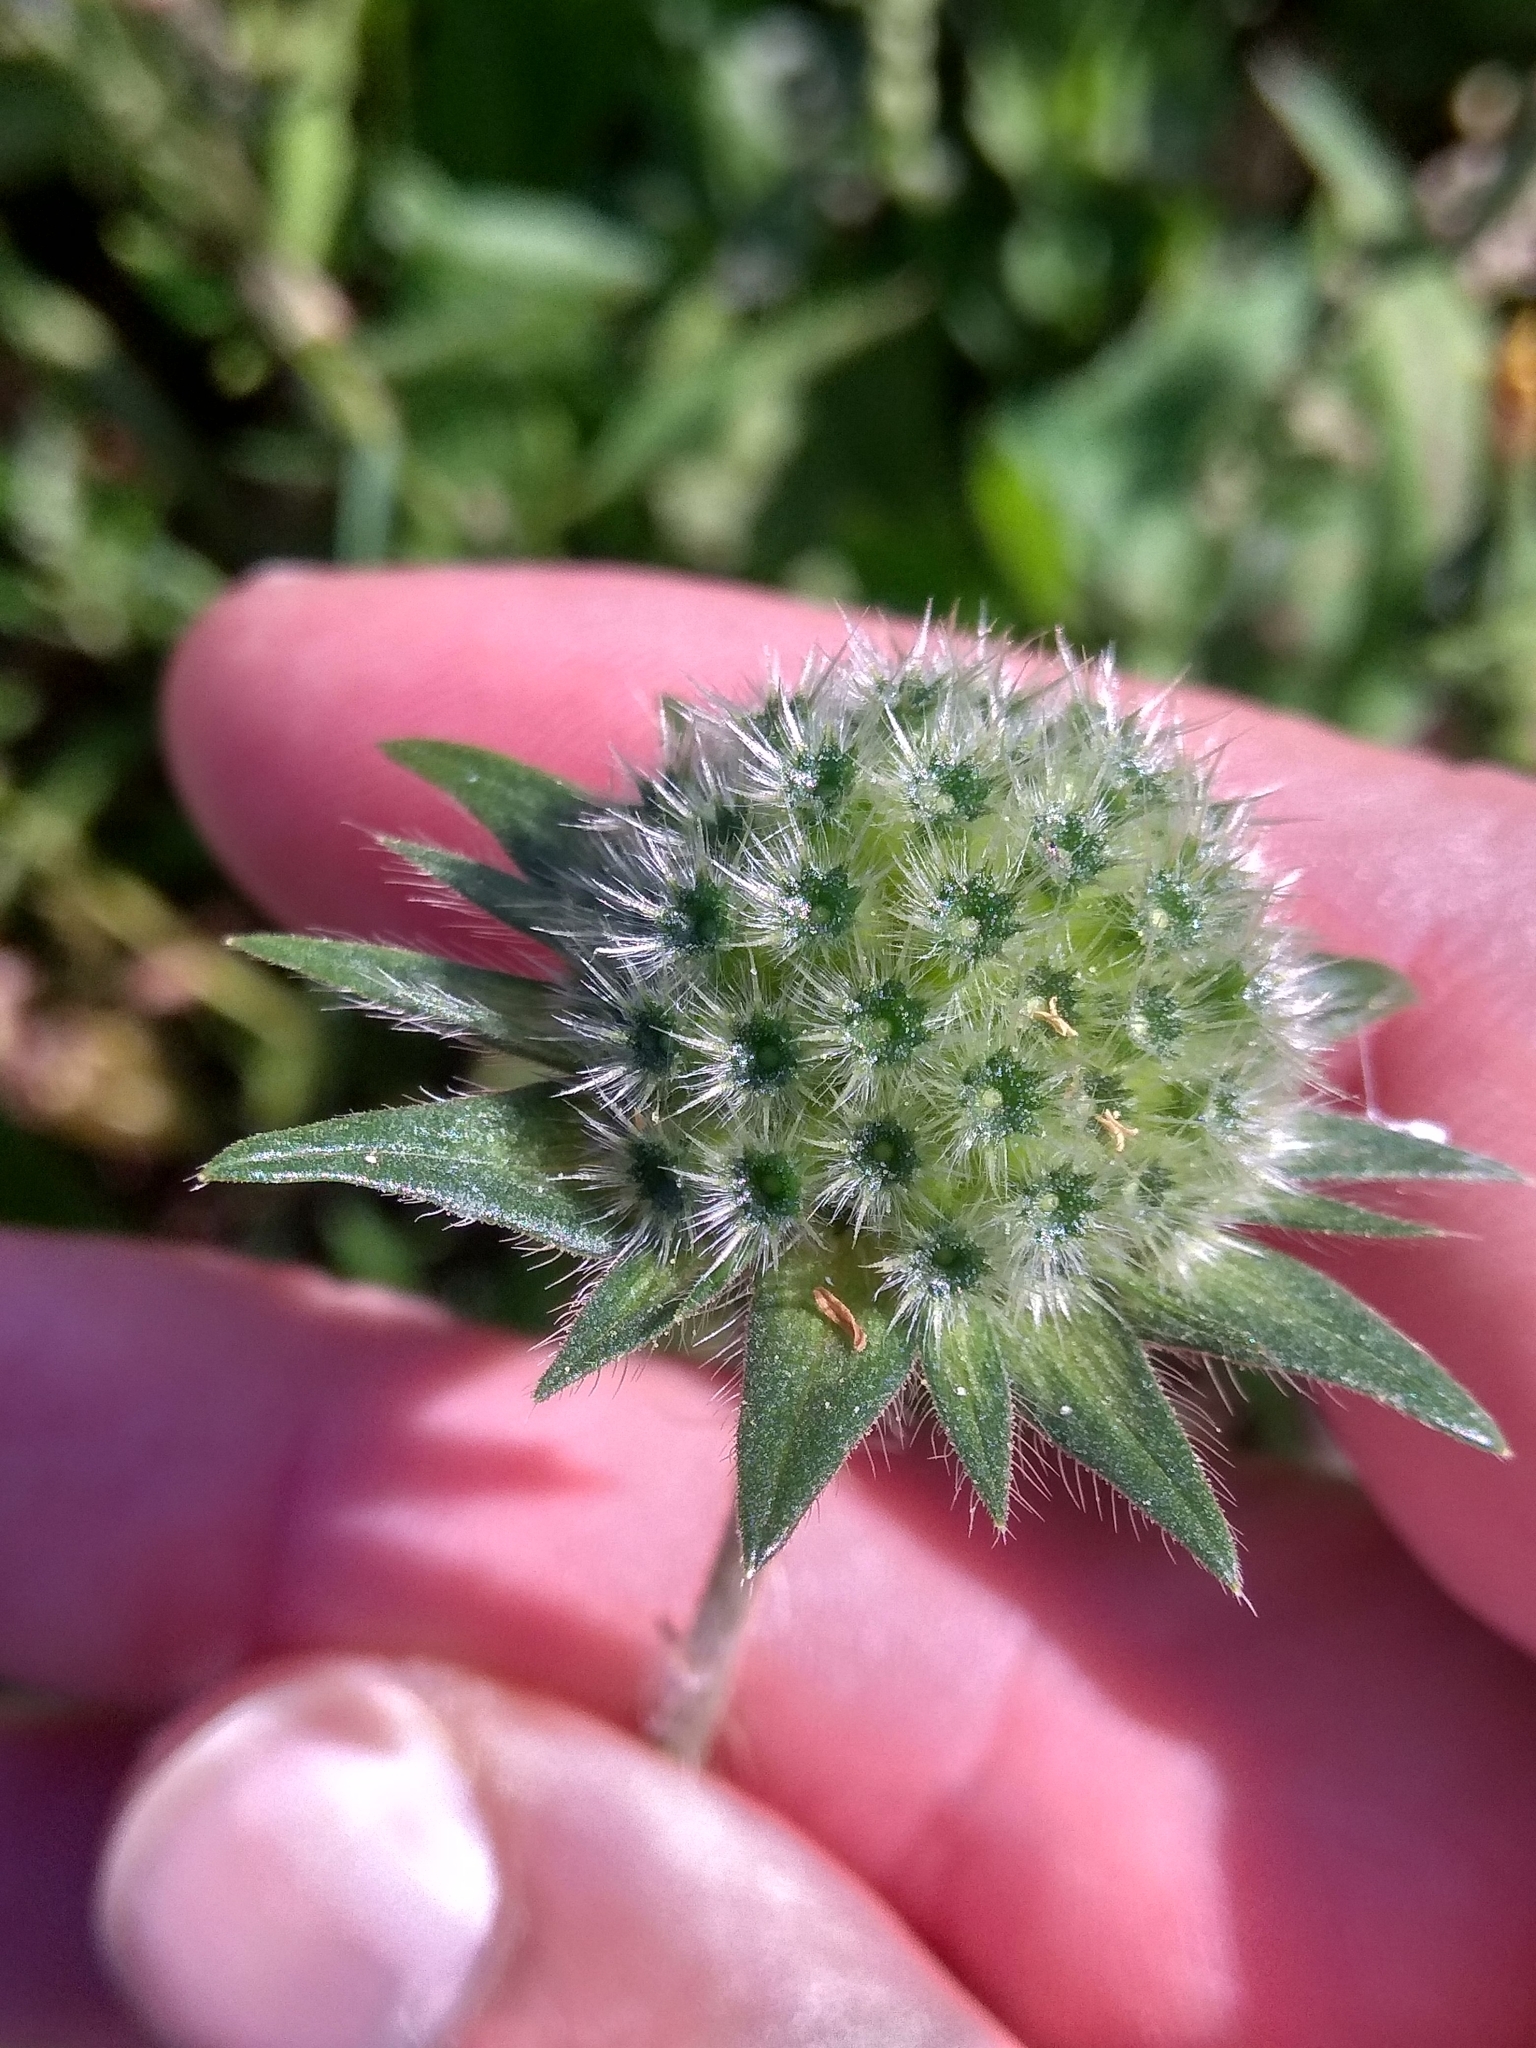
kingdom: Plantae
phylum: Tracheophyta
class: Magnoliopsida
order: Dipsacales
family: Caprifoliaceae
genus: Knautia
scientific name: Knautia arvensis
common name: Field scabiosa
